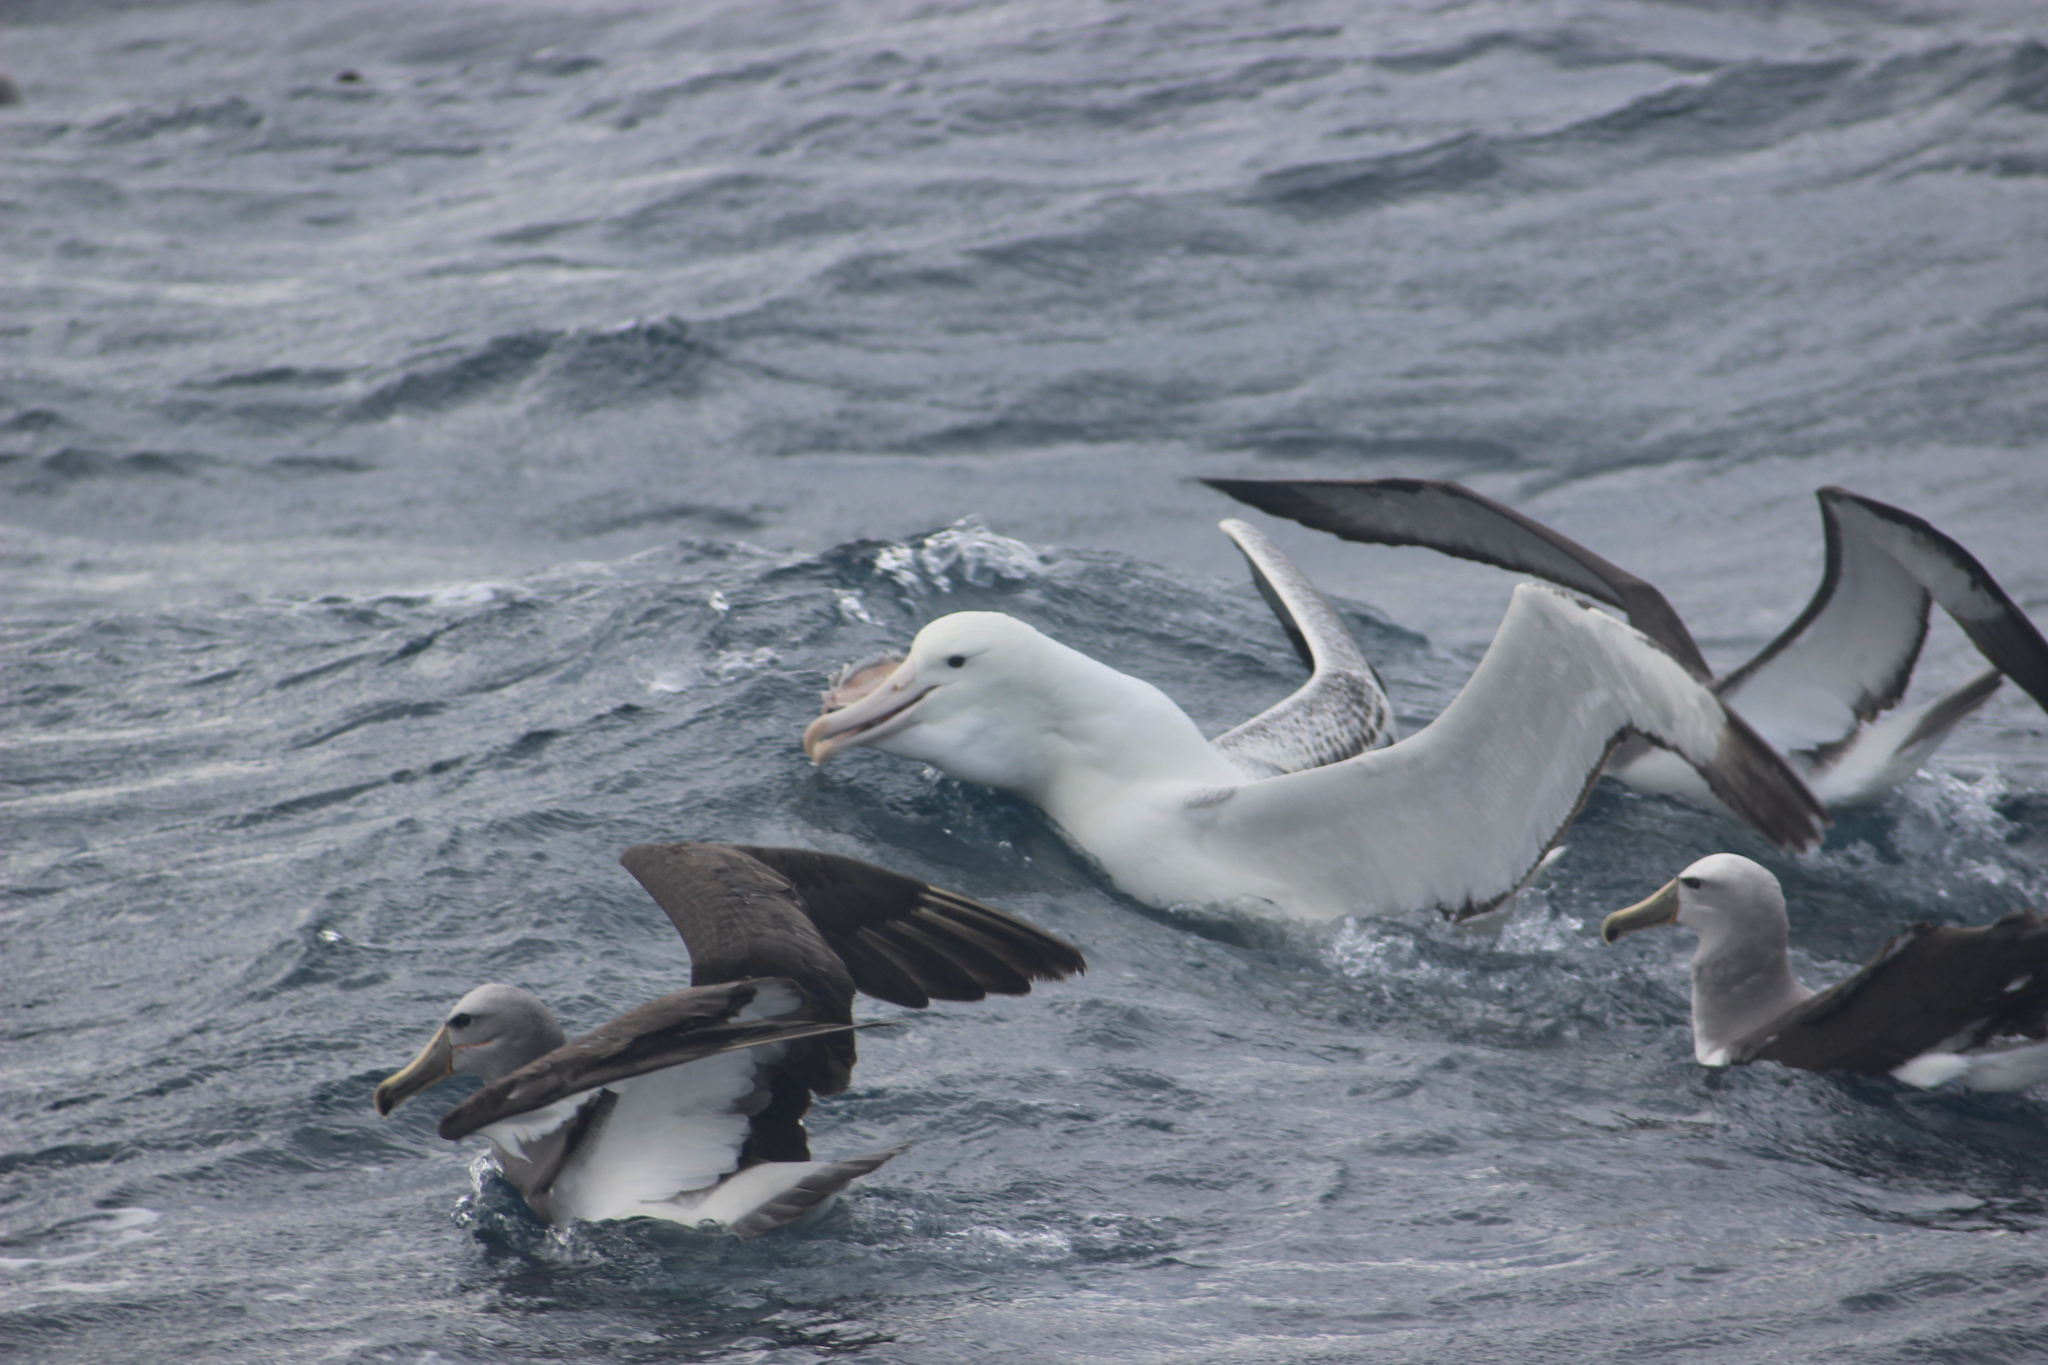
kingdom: Animalia
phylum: Chordata
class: Aves
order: Procellariiformes
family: Diomedeidae
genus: Thalassarche
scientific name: Thalassarche salvini
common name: Salvin's albatross
